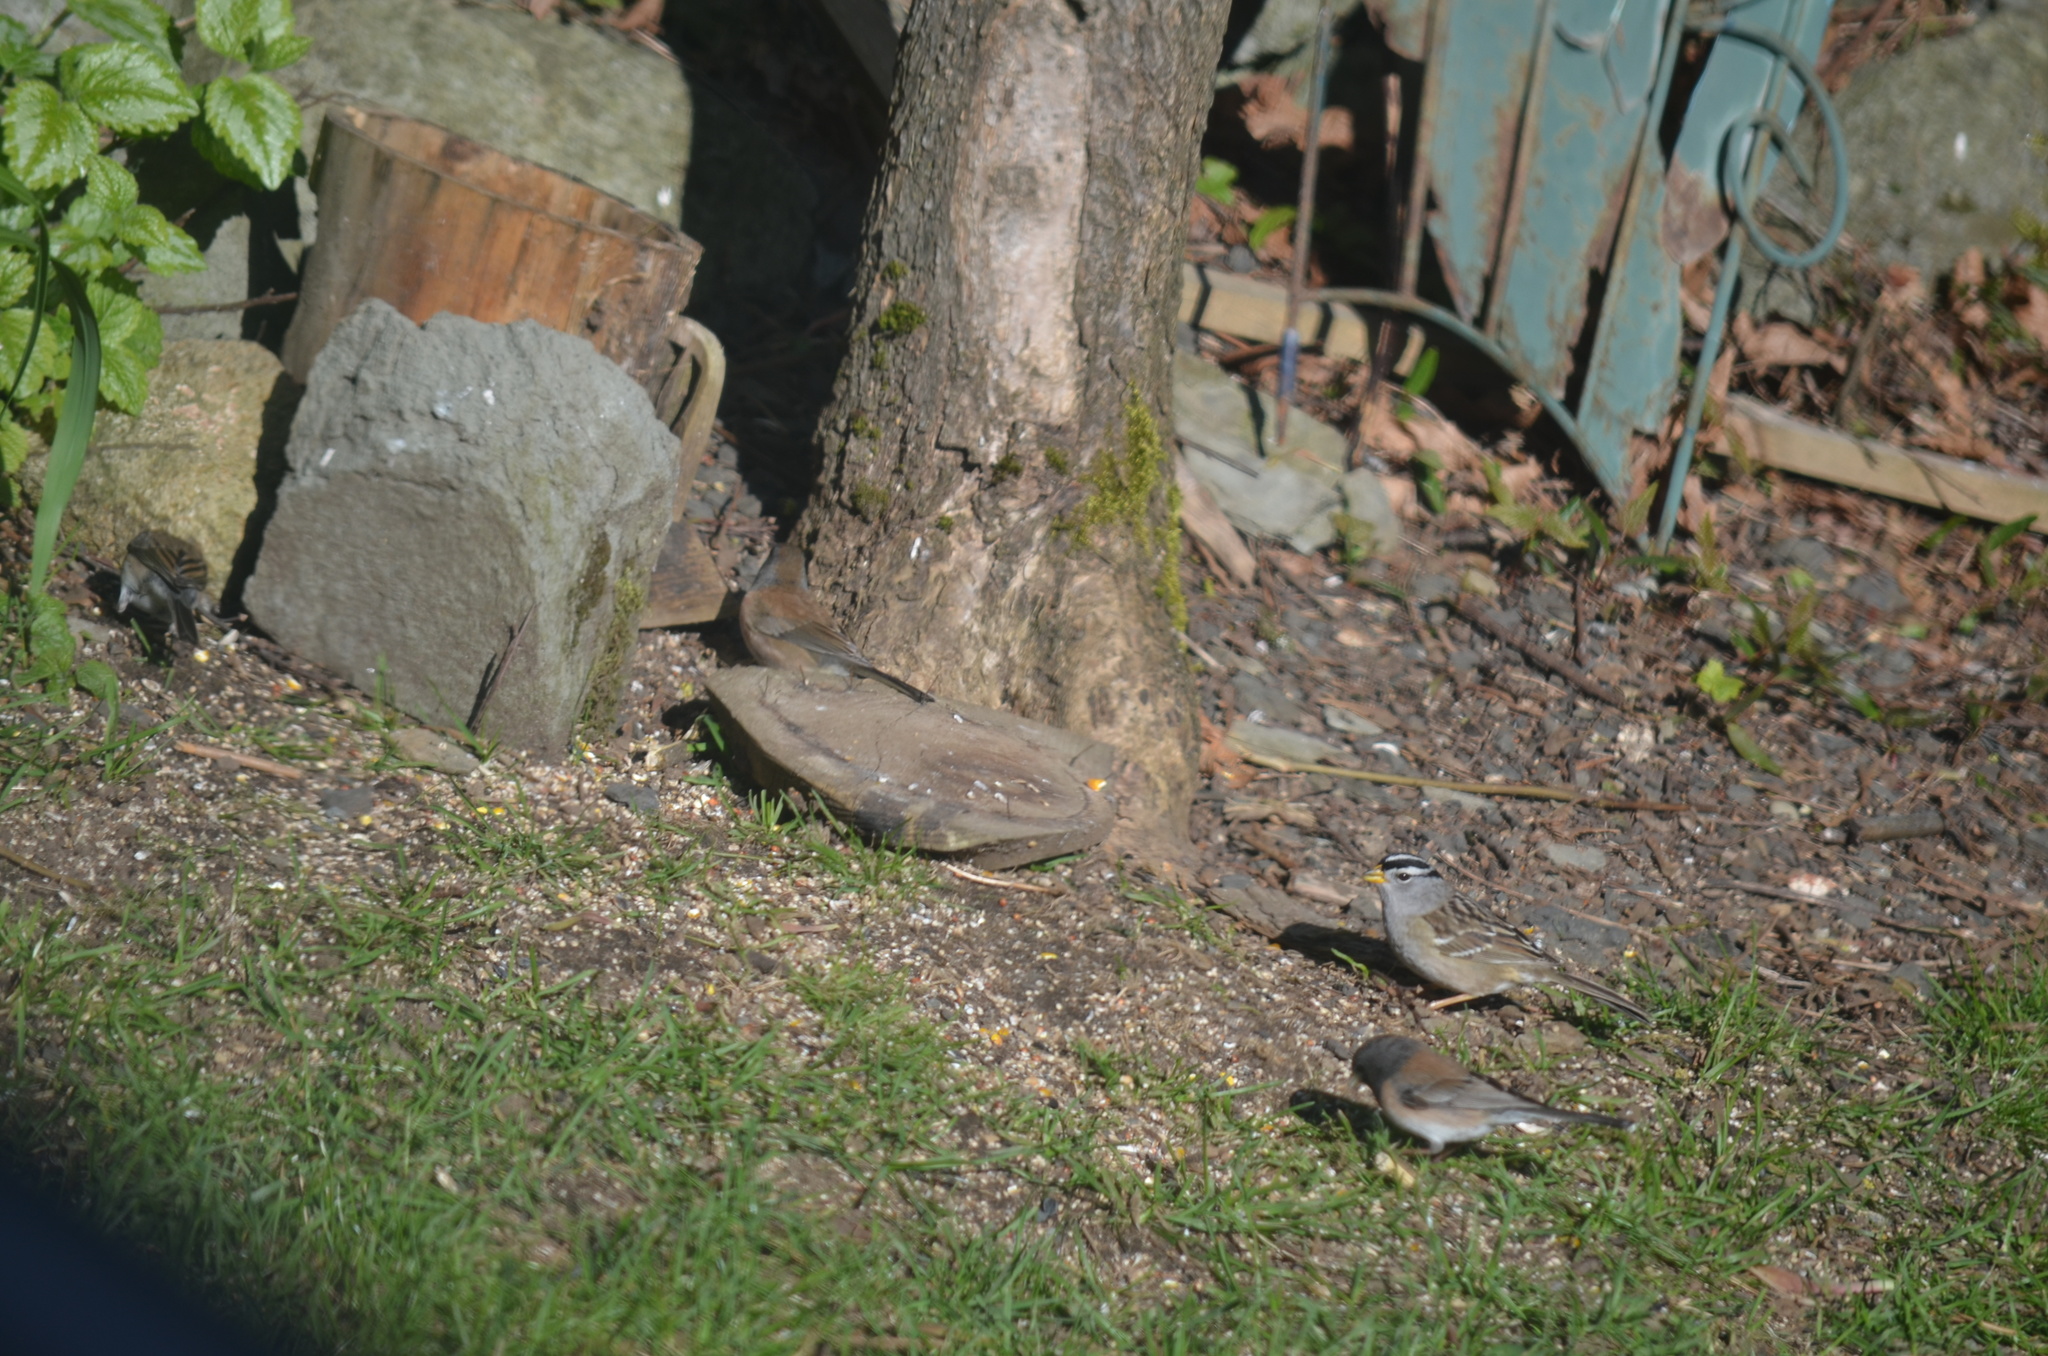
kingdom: Animalia
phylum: Chordata
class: Aves
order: Passeriformes
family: Passerellidae
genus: Junco
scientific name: Junco hyemalis
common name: Dark-eyed junco
